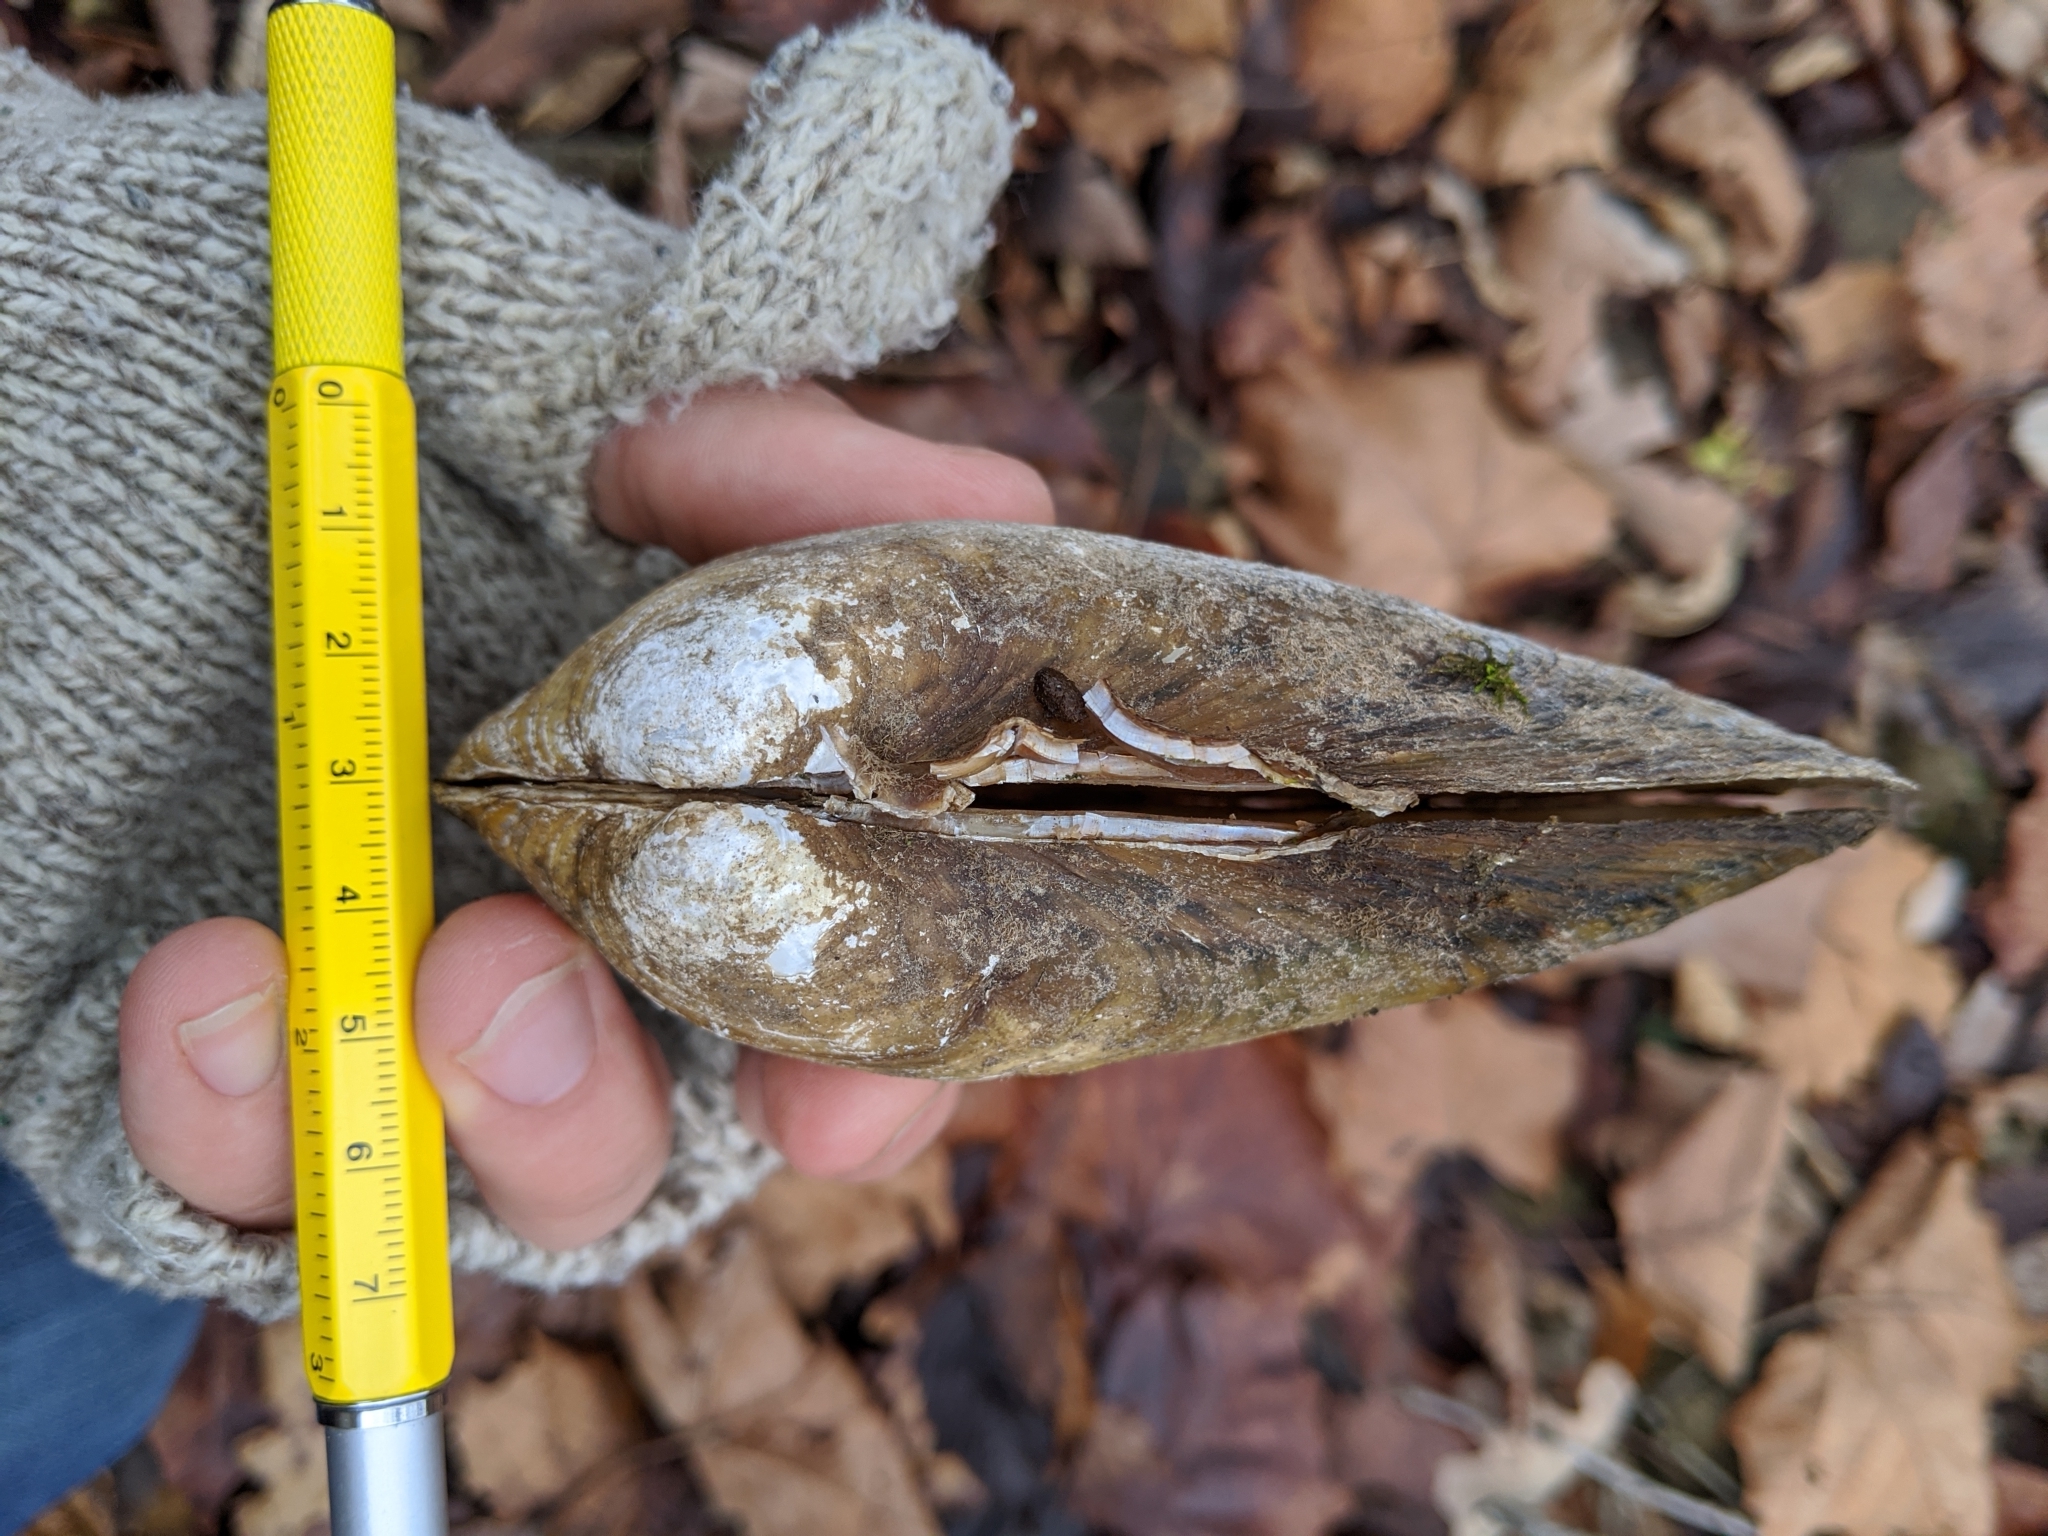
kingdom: Animalia
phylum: Mollusca
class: Bivalvia
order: Unionida
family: Unionidae
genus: Pyganodon
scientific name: Pyganodon grandis
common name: Giant floater
